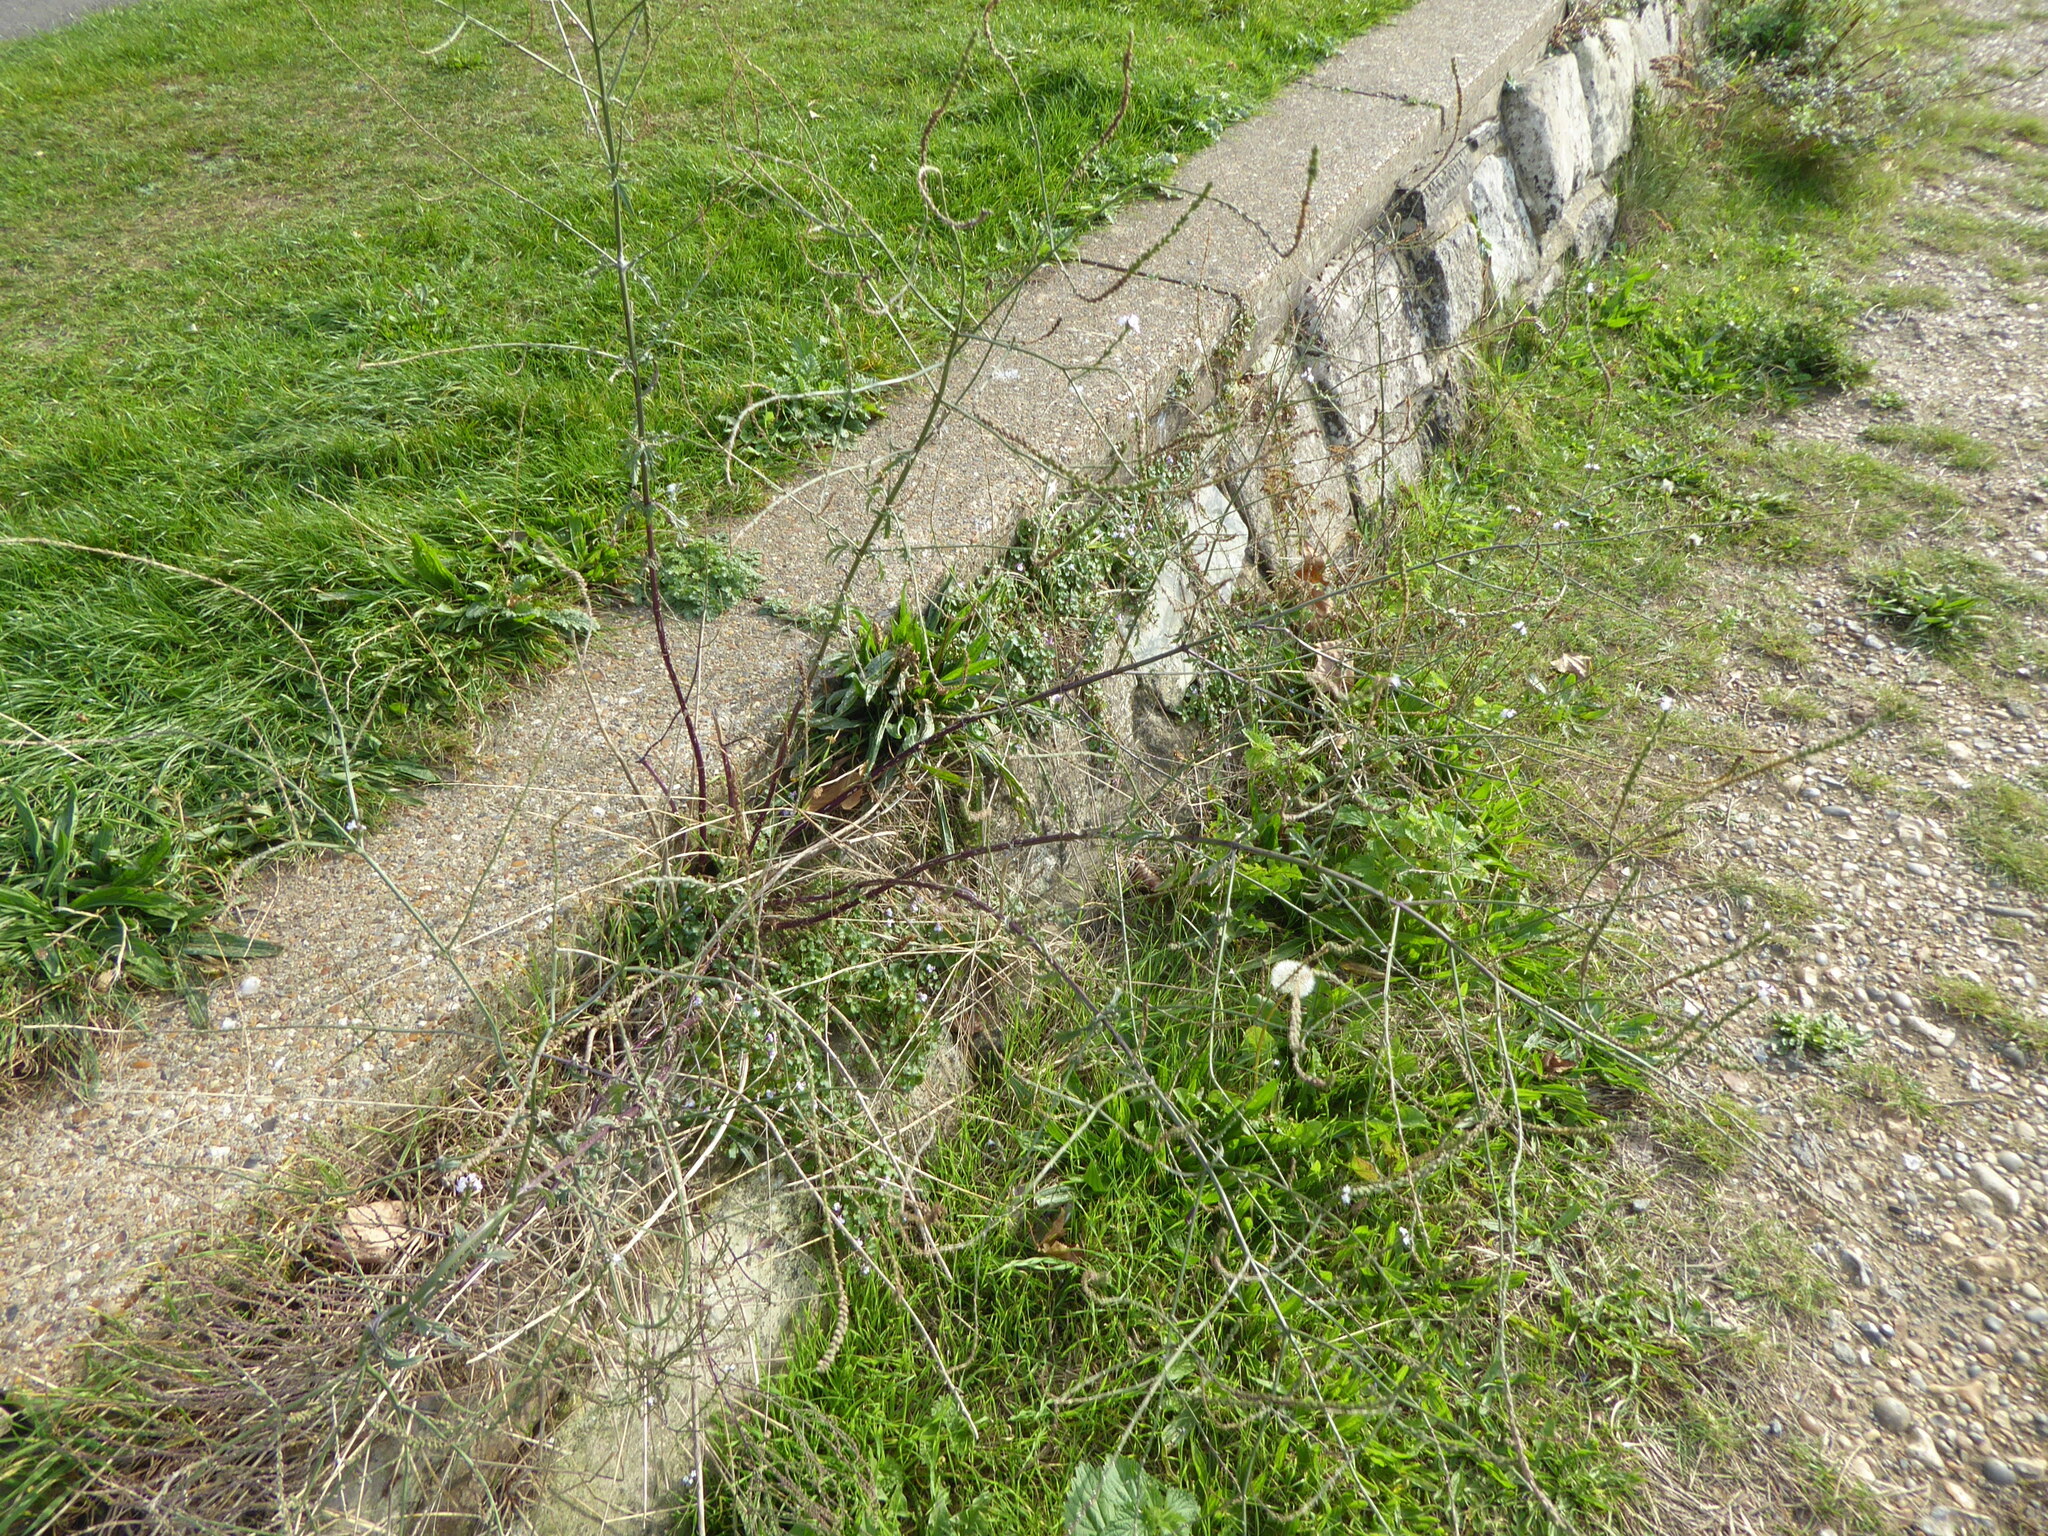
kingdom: Plantae
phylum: Tracheophyta
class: Magnoliopsida
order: Lamiales
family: Verbenaceae
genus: Verbena
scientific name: Verbena officinalis
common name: Vervain
